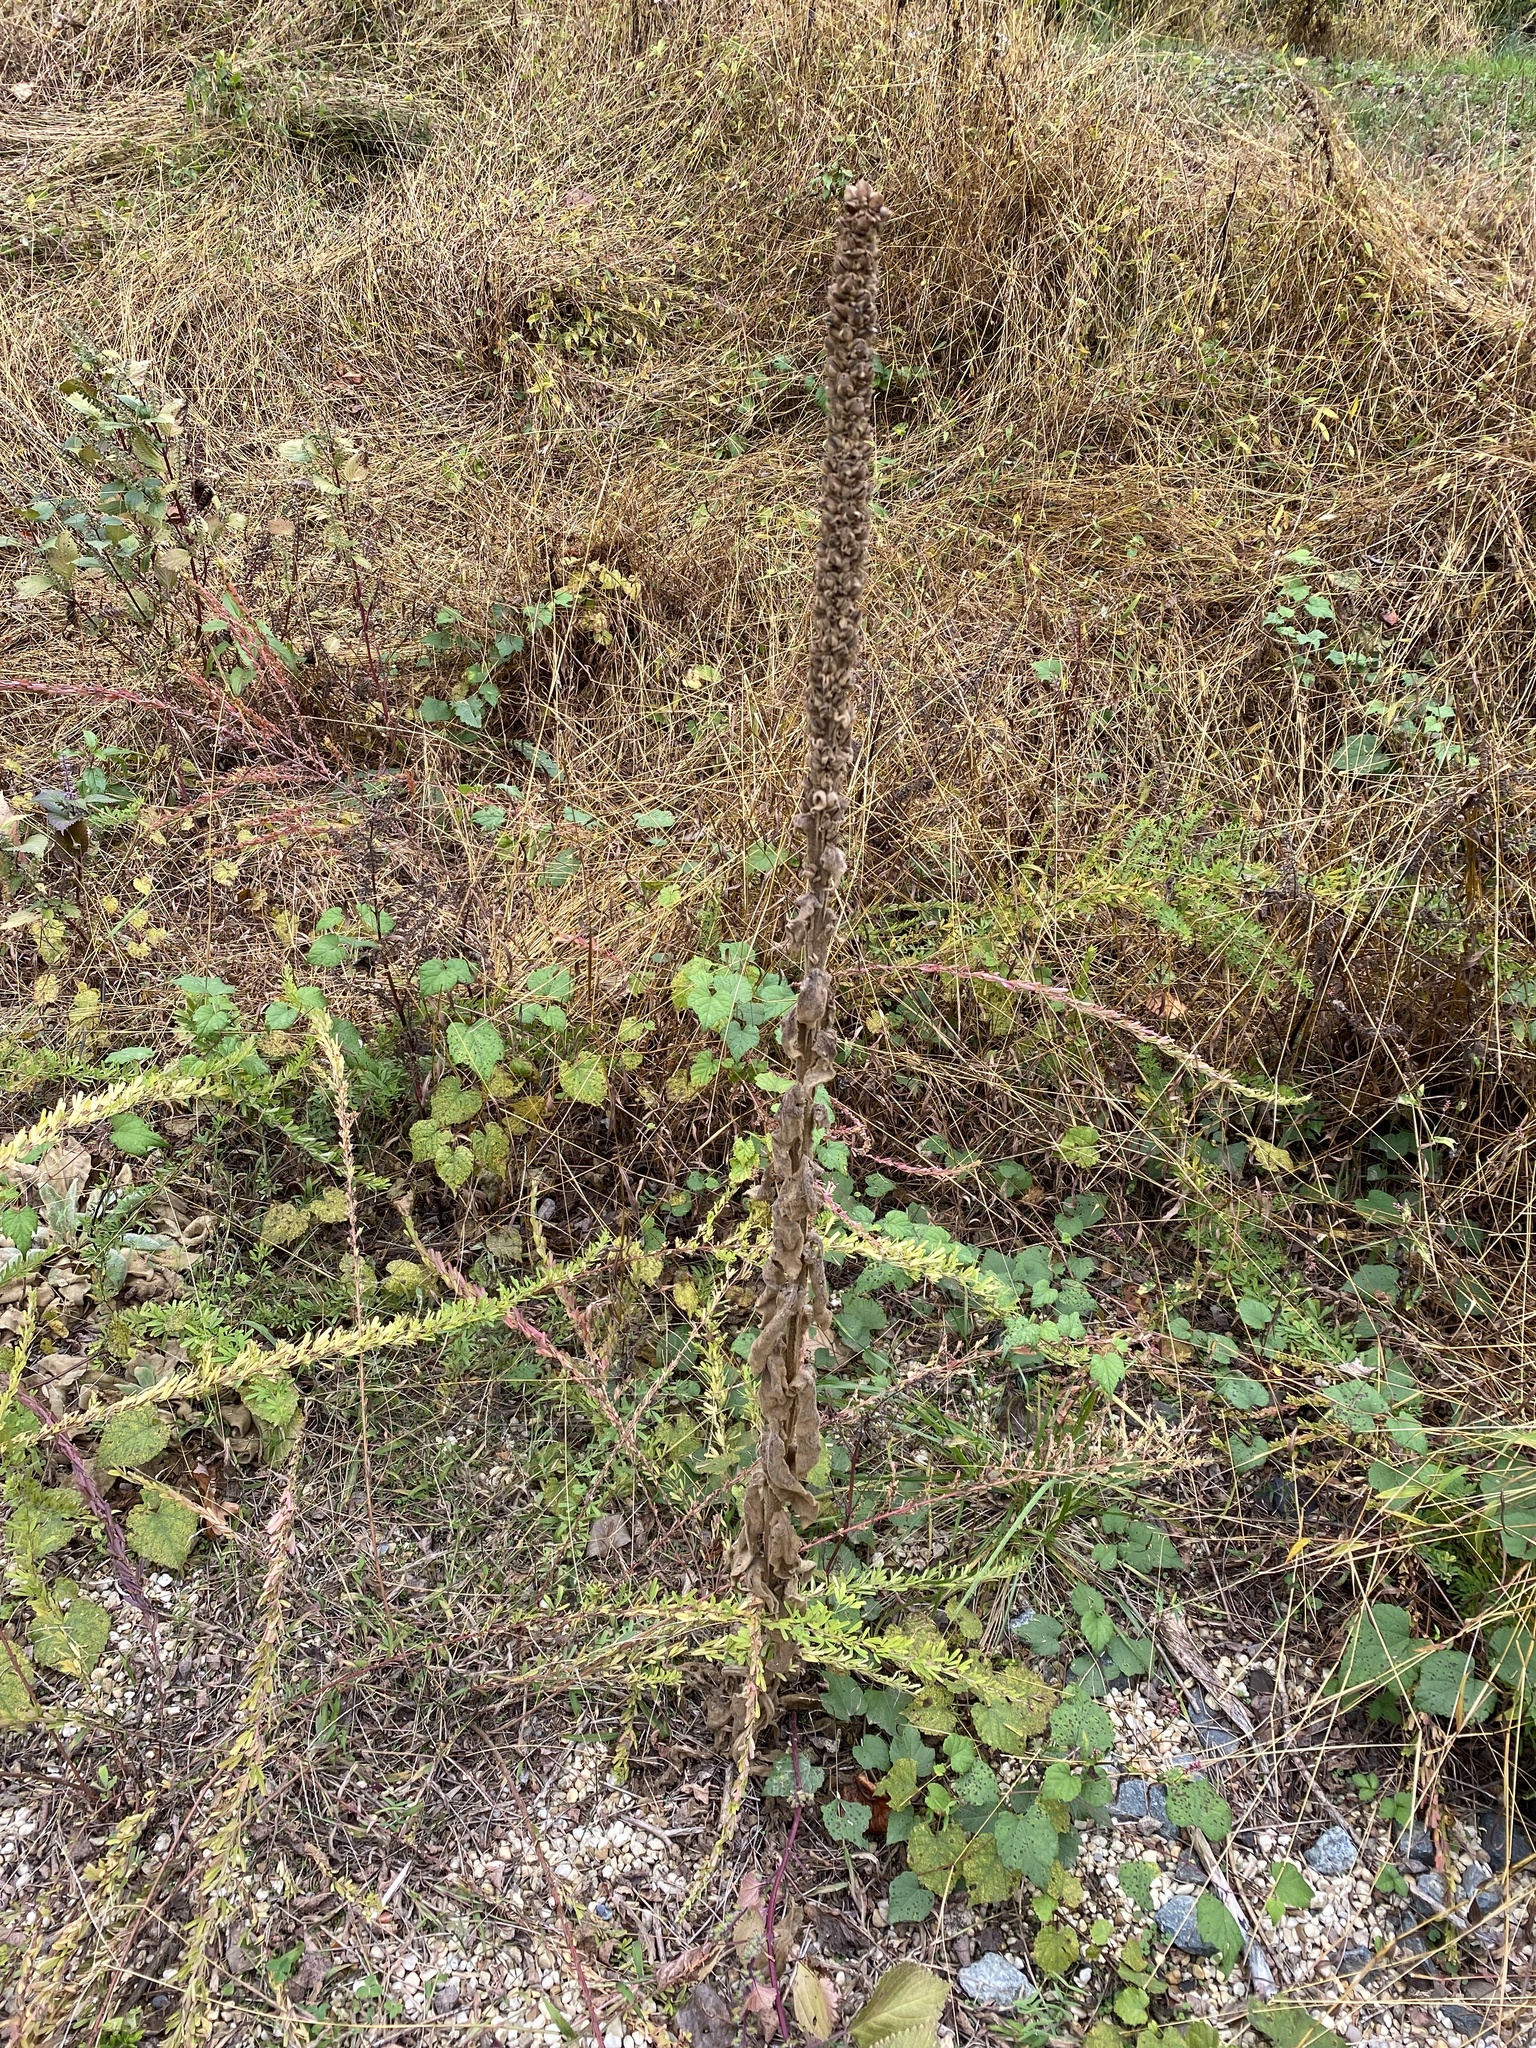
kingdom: Plantae
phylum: Tracheophyta
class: Magnoliopsida
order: Lamiales
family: Scrophulariaceae
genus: Verbascum
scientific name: Verbascum thapsus
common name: Common mullein
